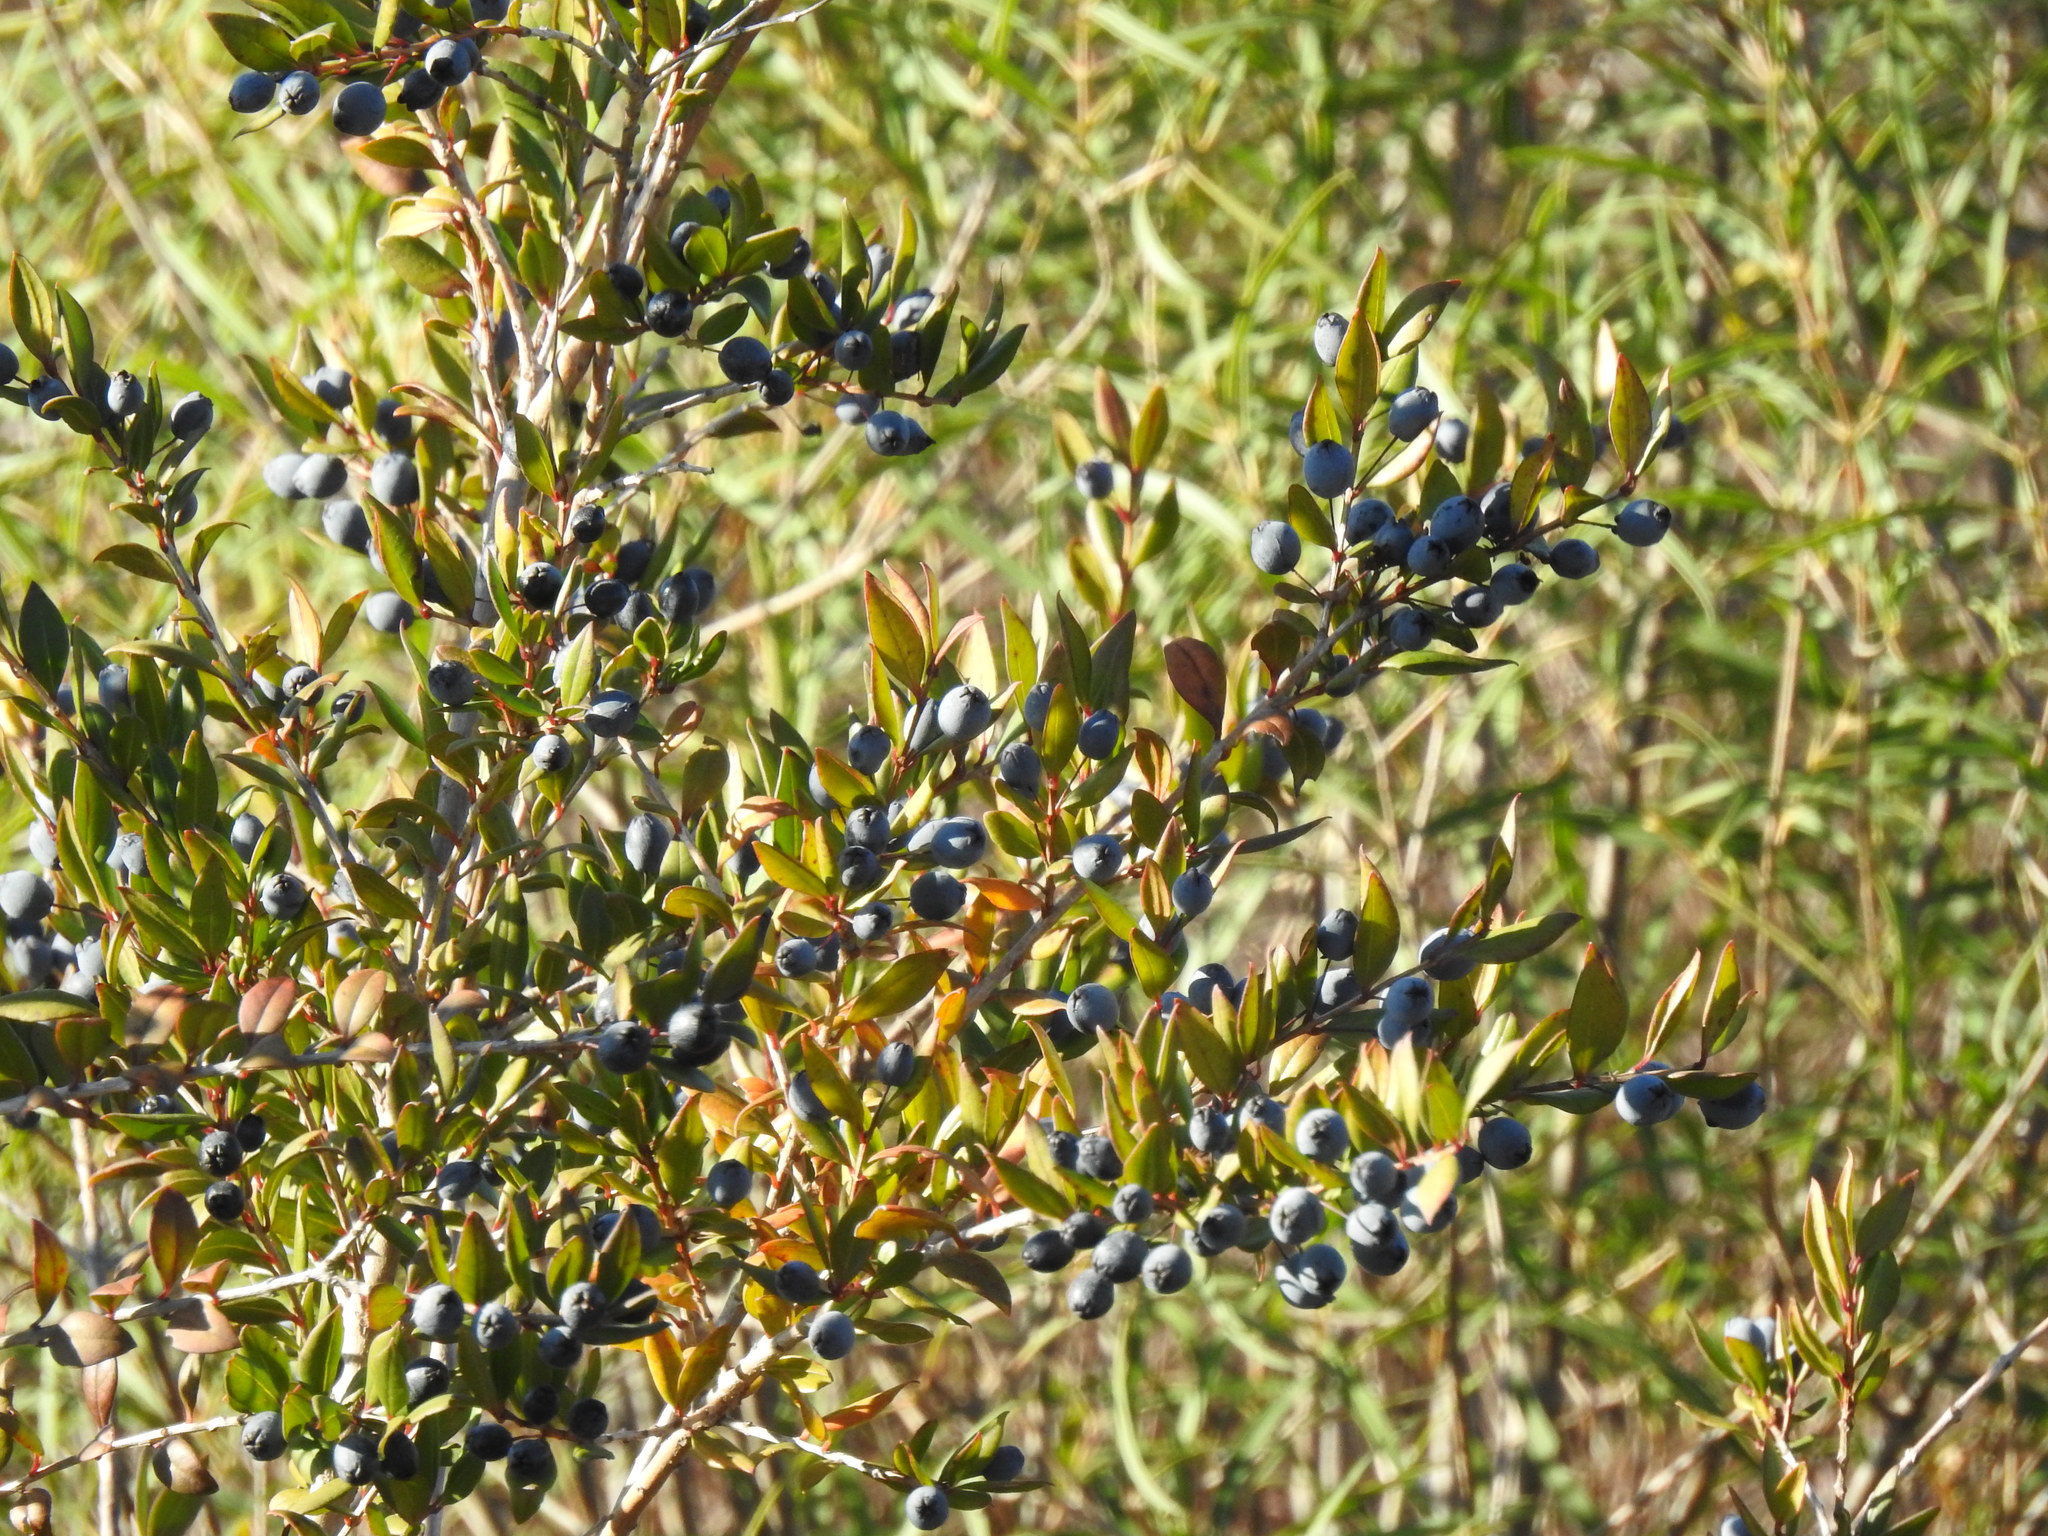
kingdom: Plantae
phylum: Tracheophyta
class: Magnoliopsida
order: Myrtales
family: Myrtaceae
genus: Myrtus
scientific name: Myrtus communis
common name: Myrtle
